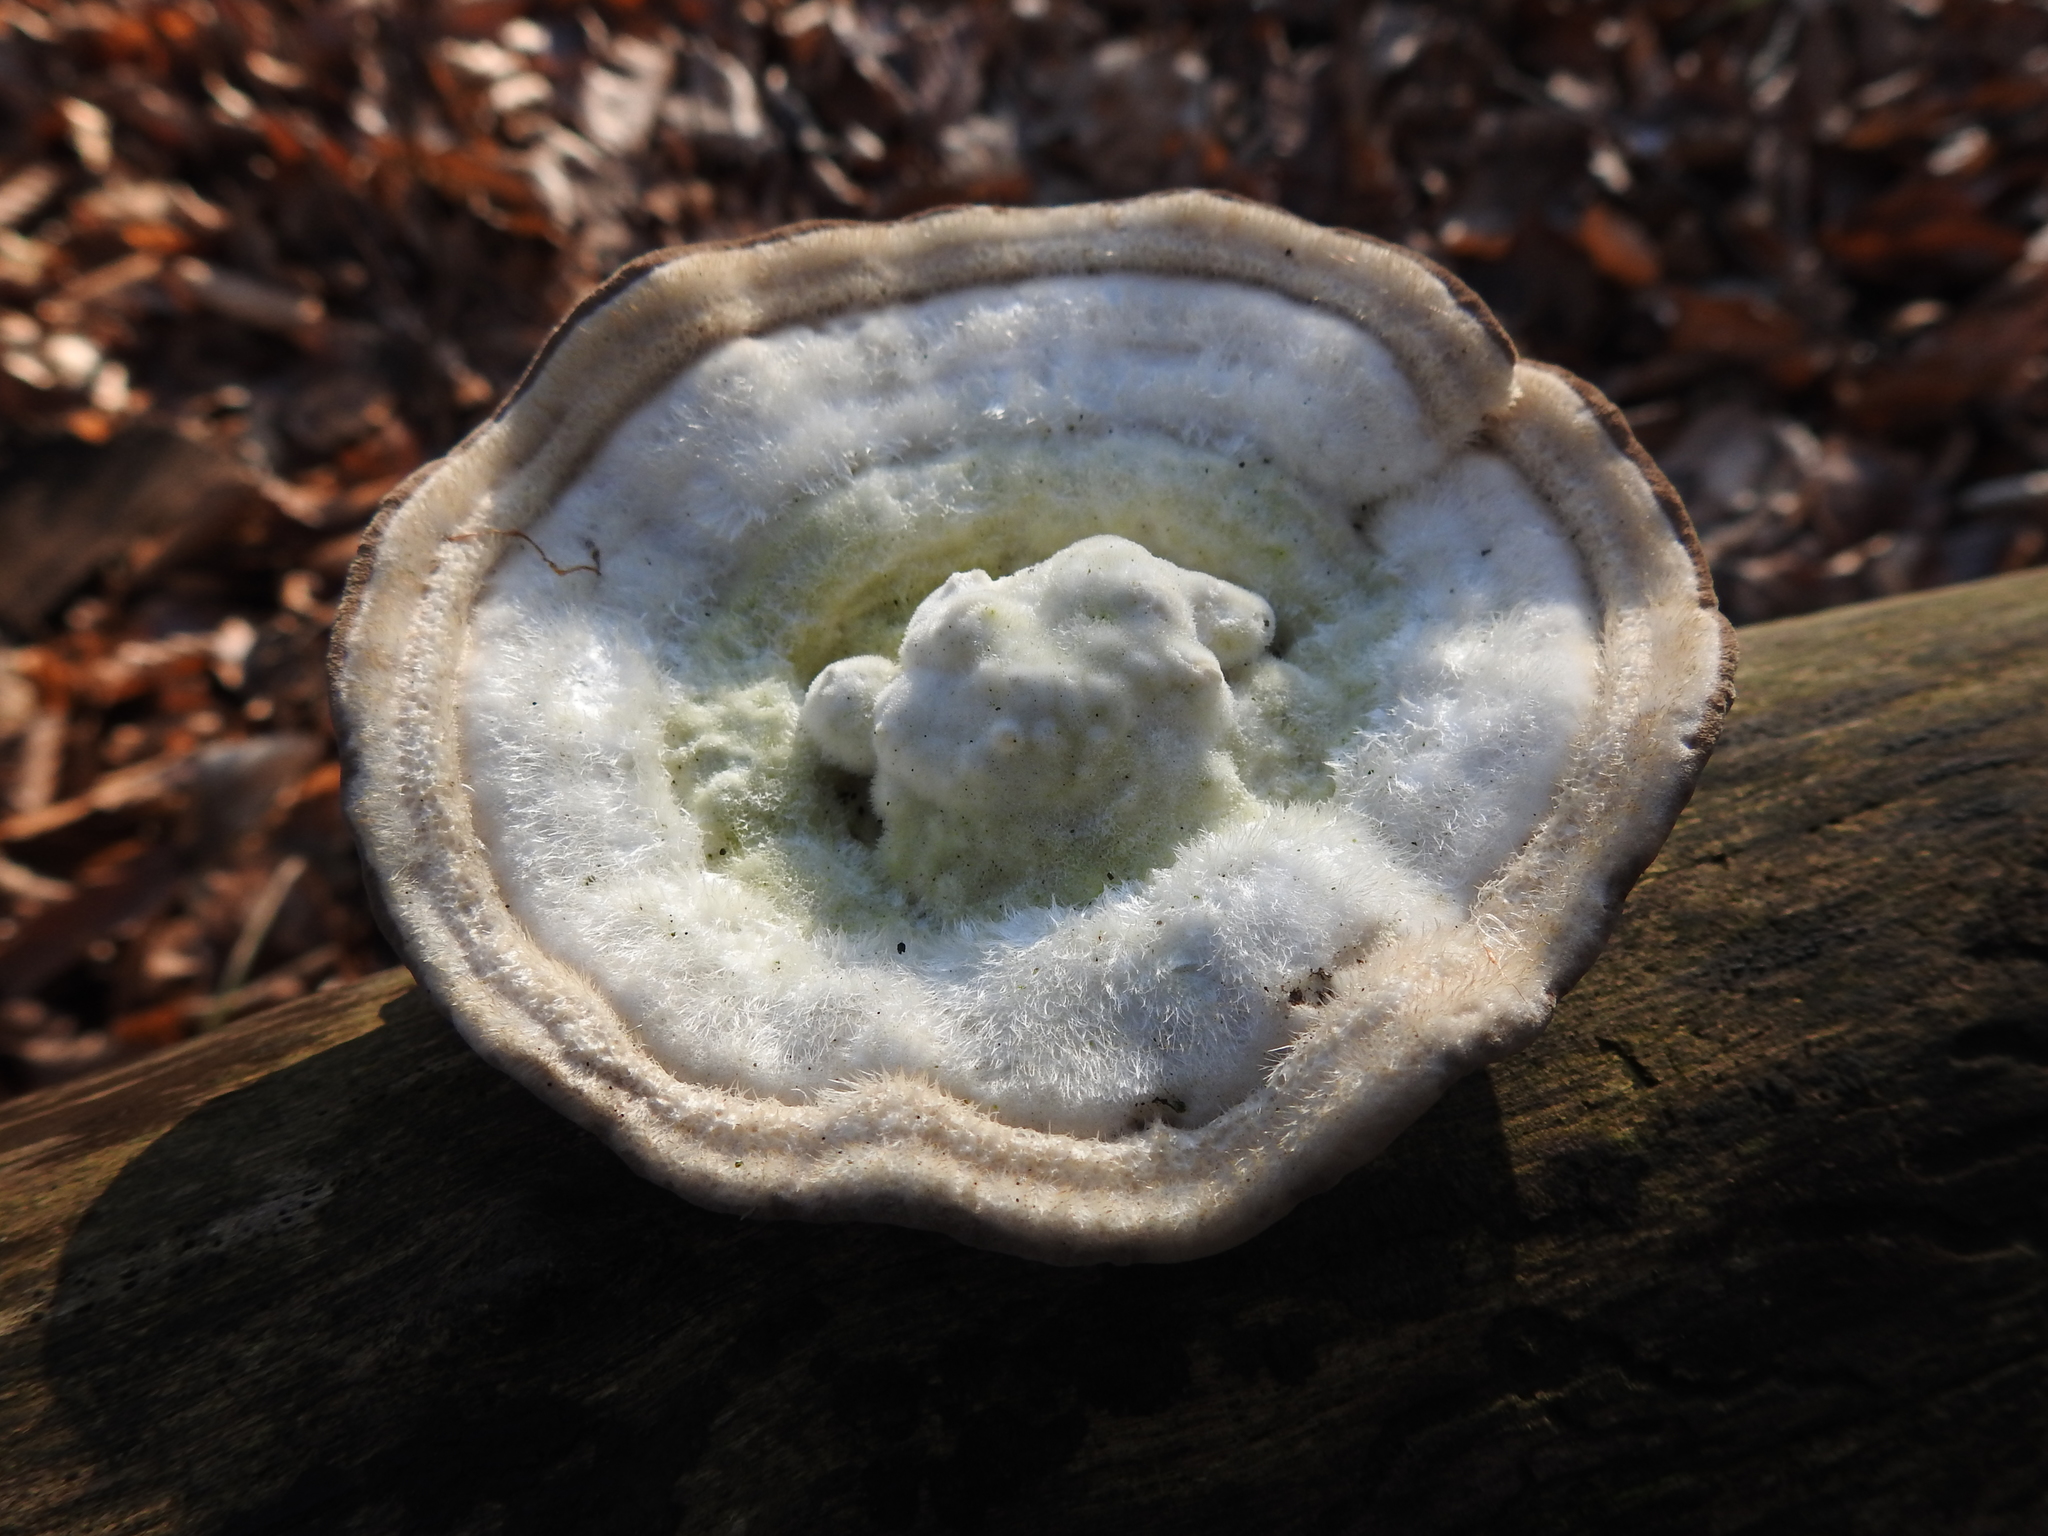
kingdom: Fungi
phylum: Basidiomycota
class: Agaricomycetes
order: Polyporales
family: Polyporaceae
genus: Trametes
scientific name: Trametes hirsuta
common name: Hairy bracket
